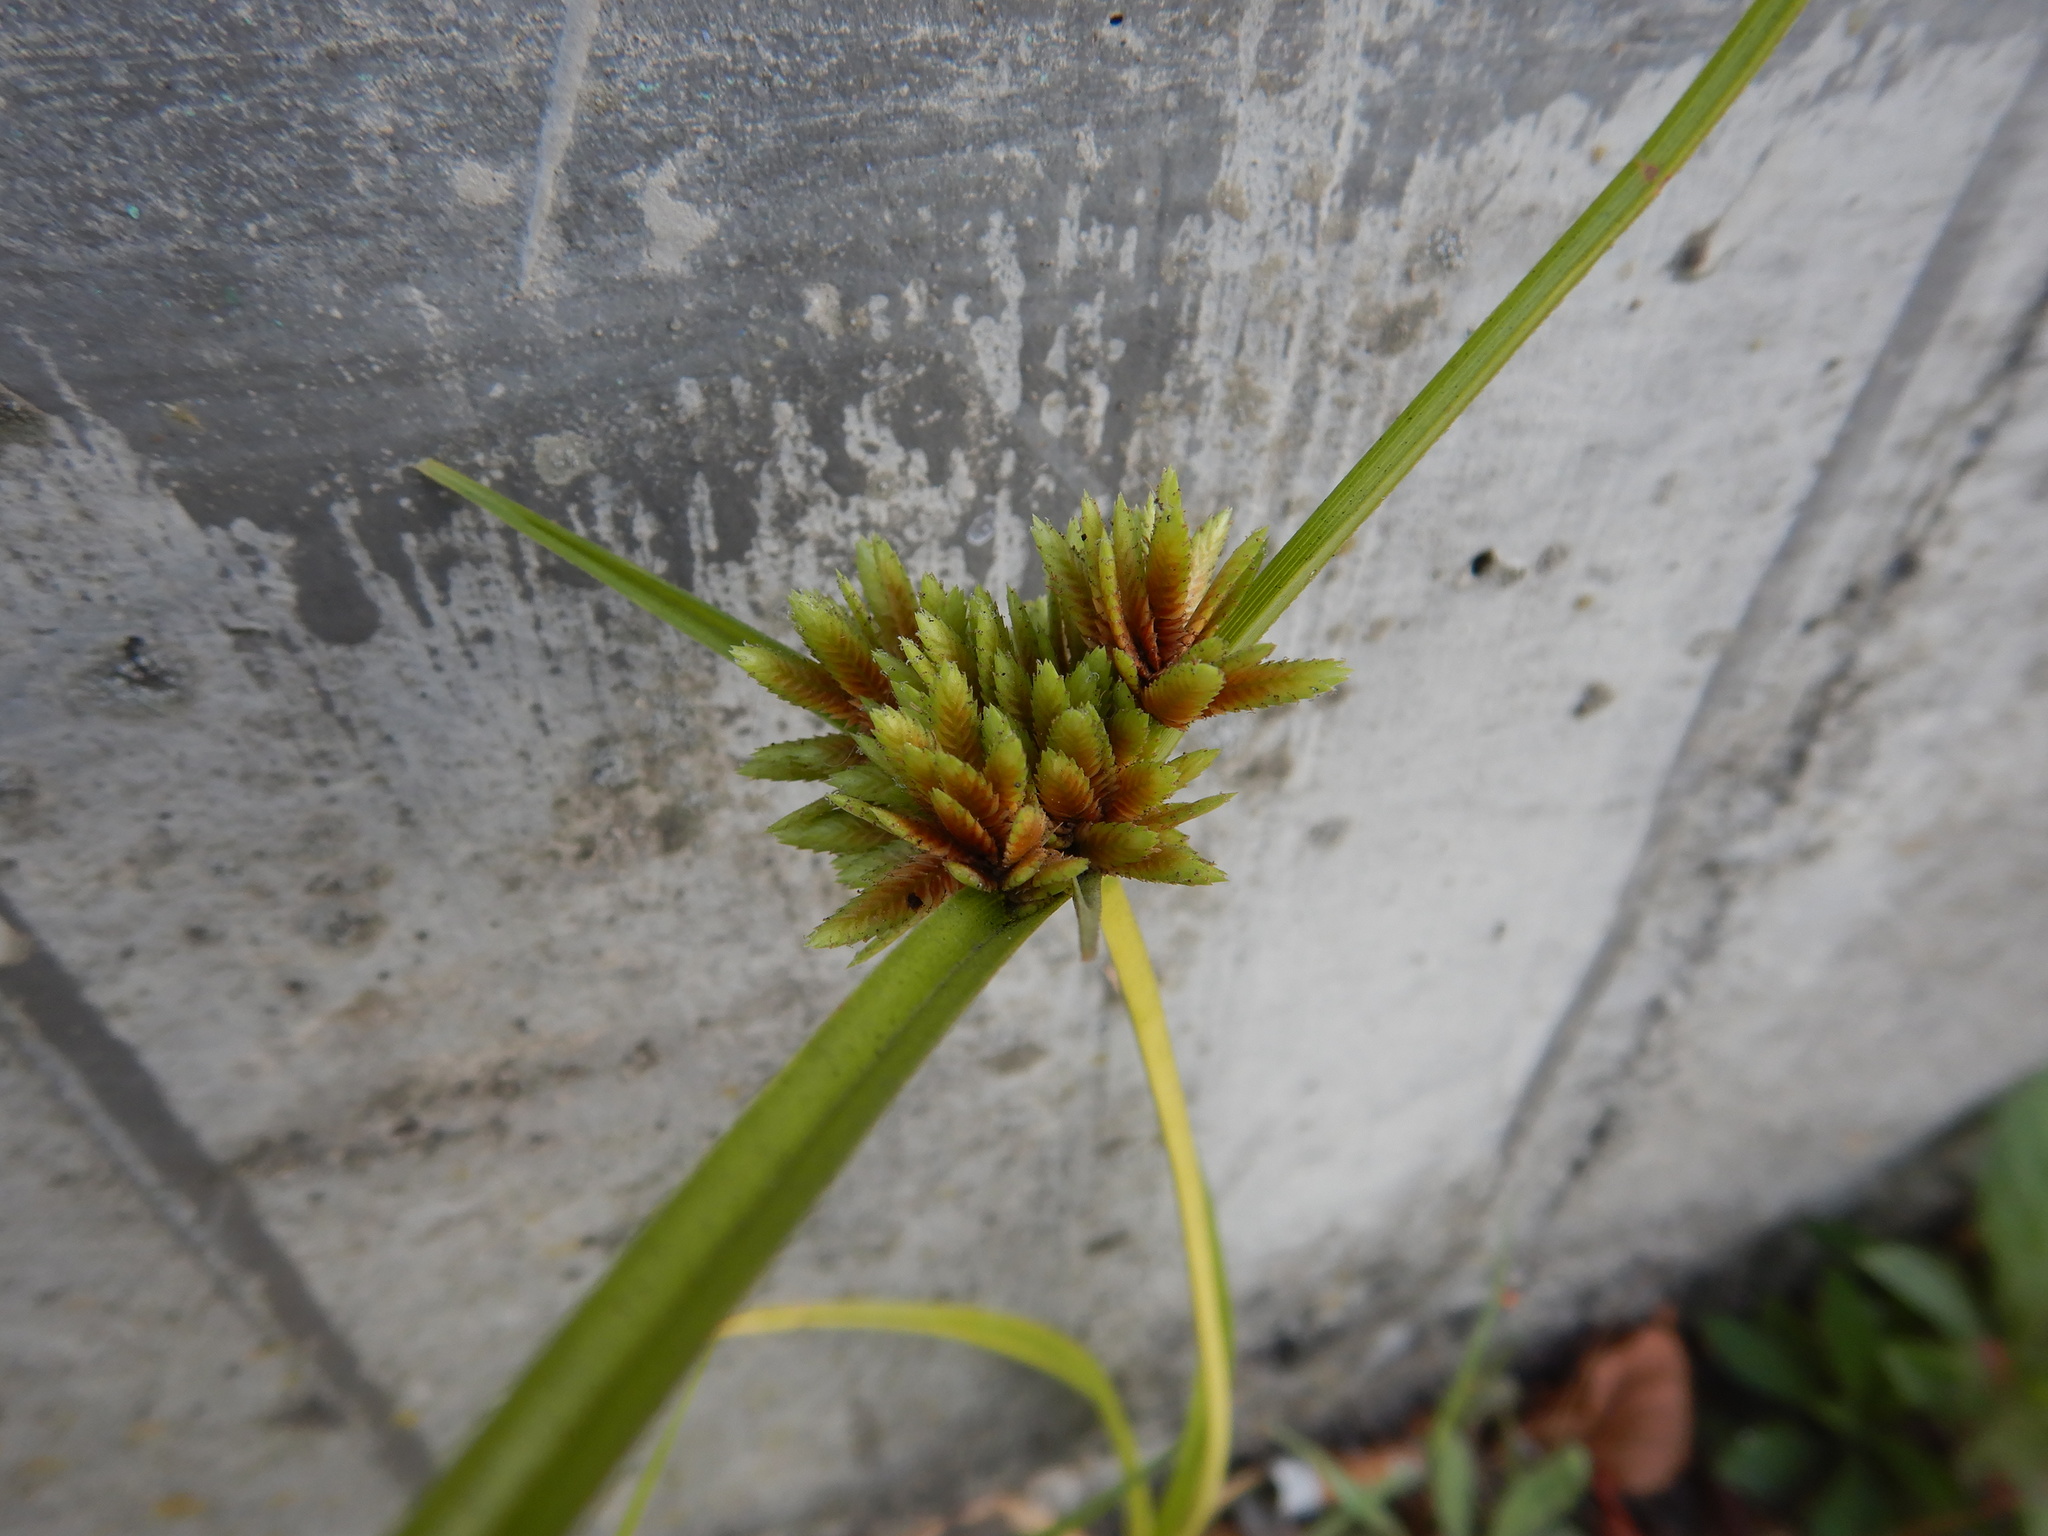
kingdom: Plantae
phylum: Tracheophyta
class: Liliopsida
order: Poales
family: Cyperaceae
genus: Cyperus
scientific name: Cyperus eragrostis
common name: Tall flatsedge
